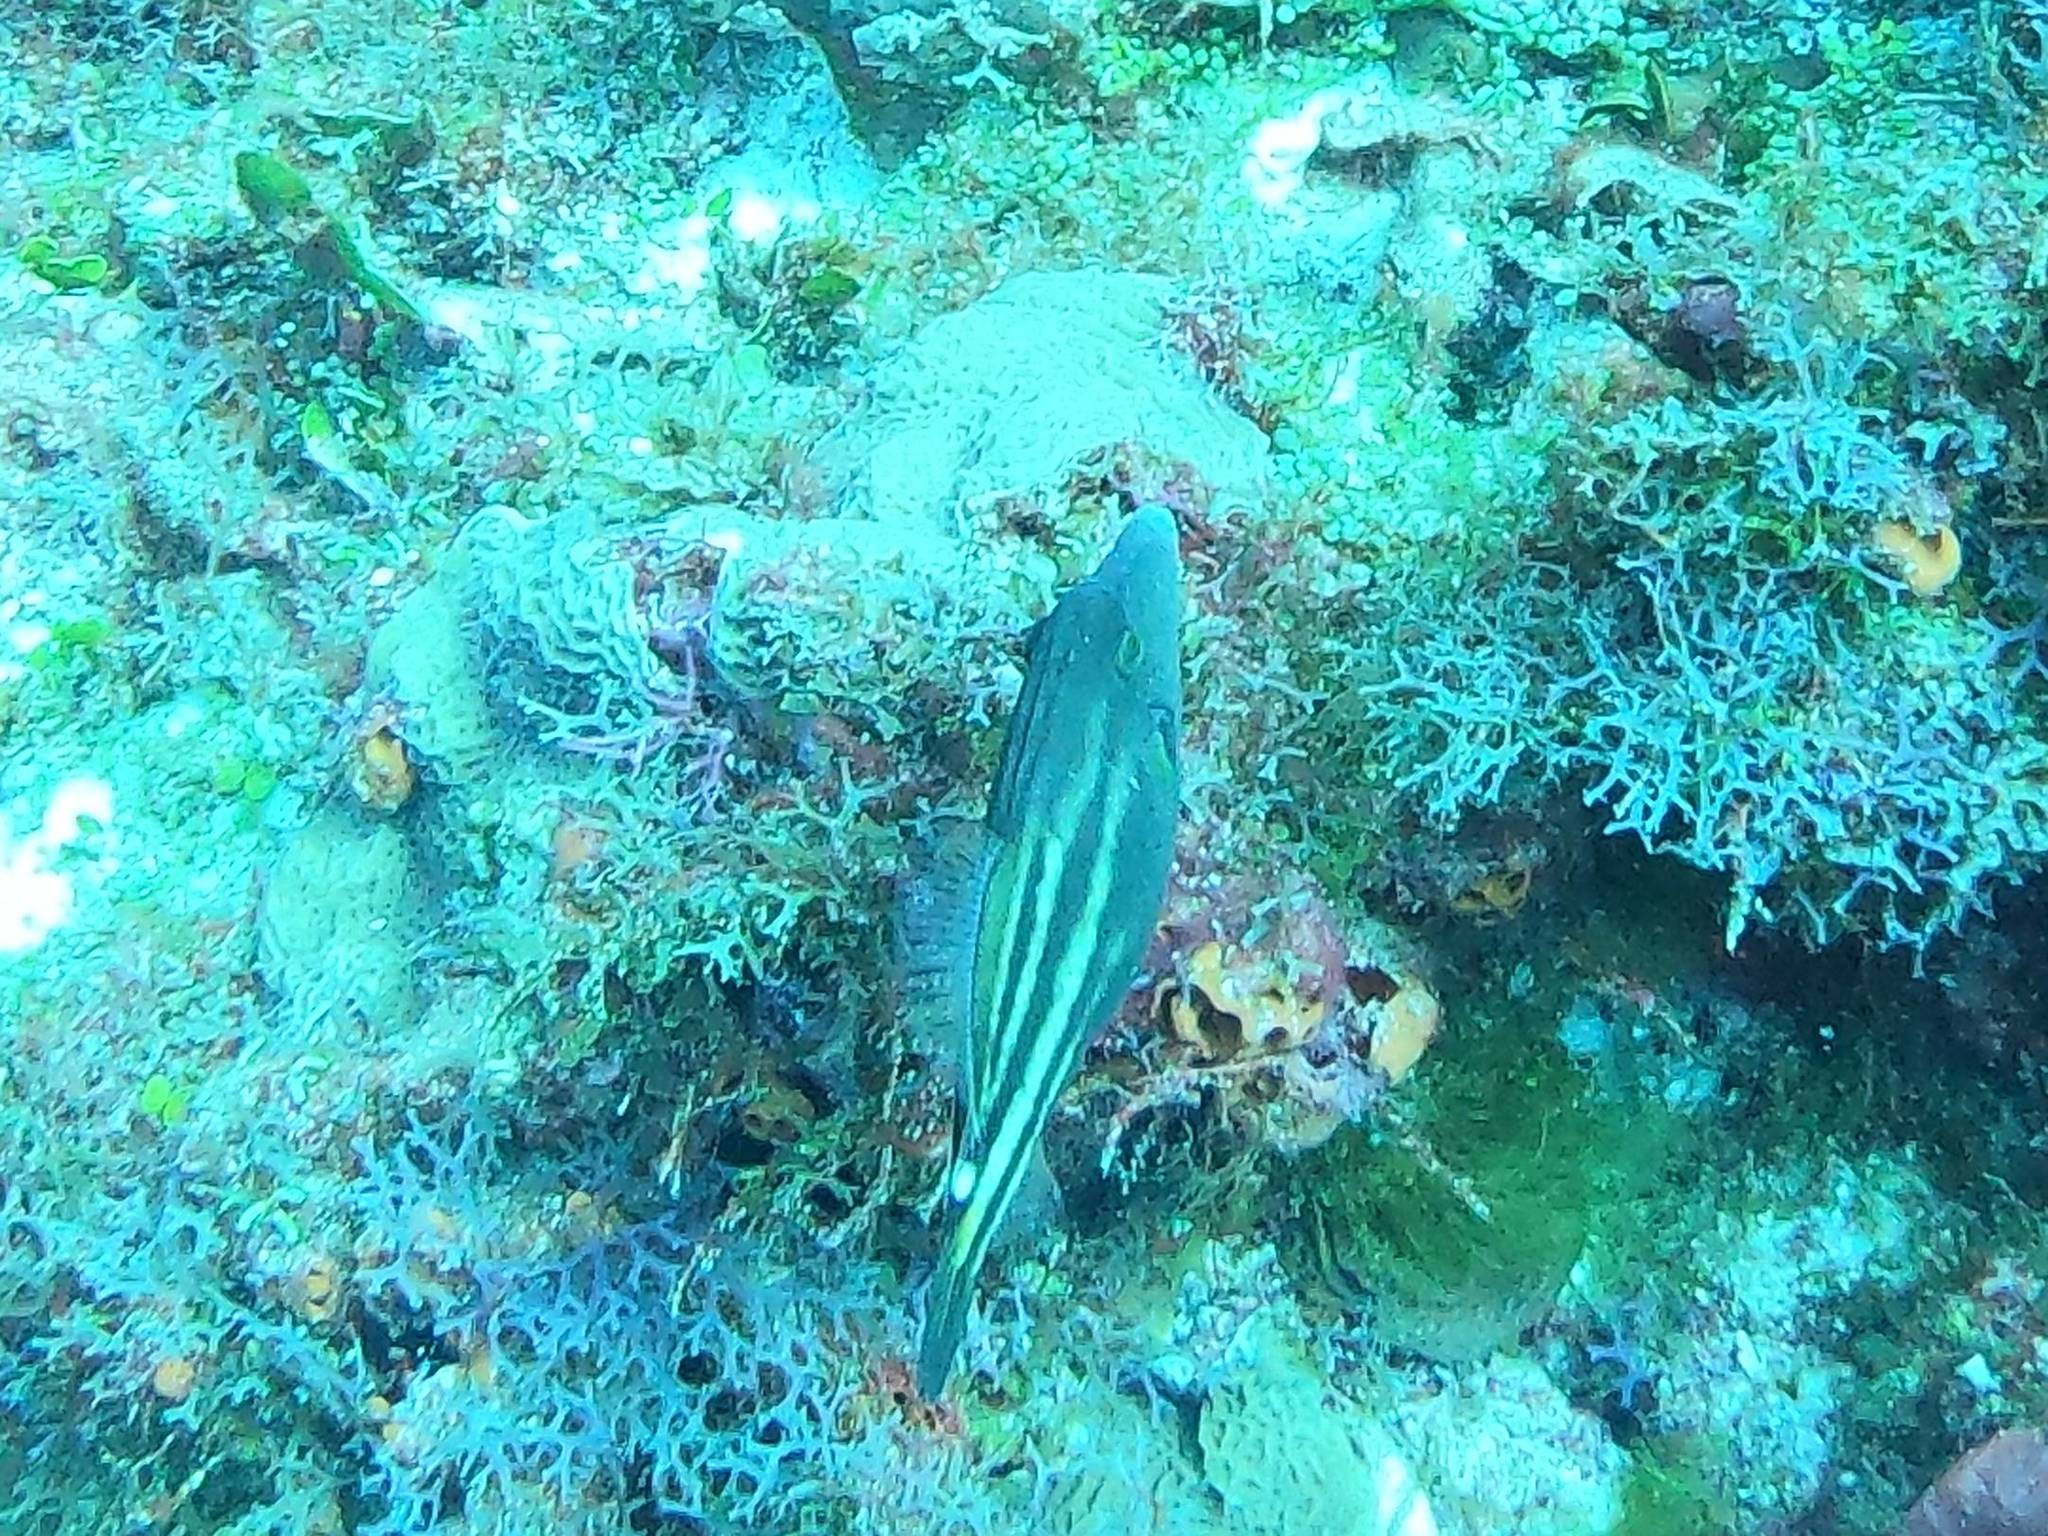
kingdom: Animalia
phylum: Chordata
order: Tetraodontiformes
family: Monacanthidae
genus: Cantherhines
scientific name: Cantherhines pullus
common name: Orangespotted filefish
